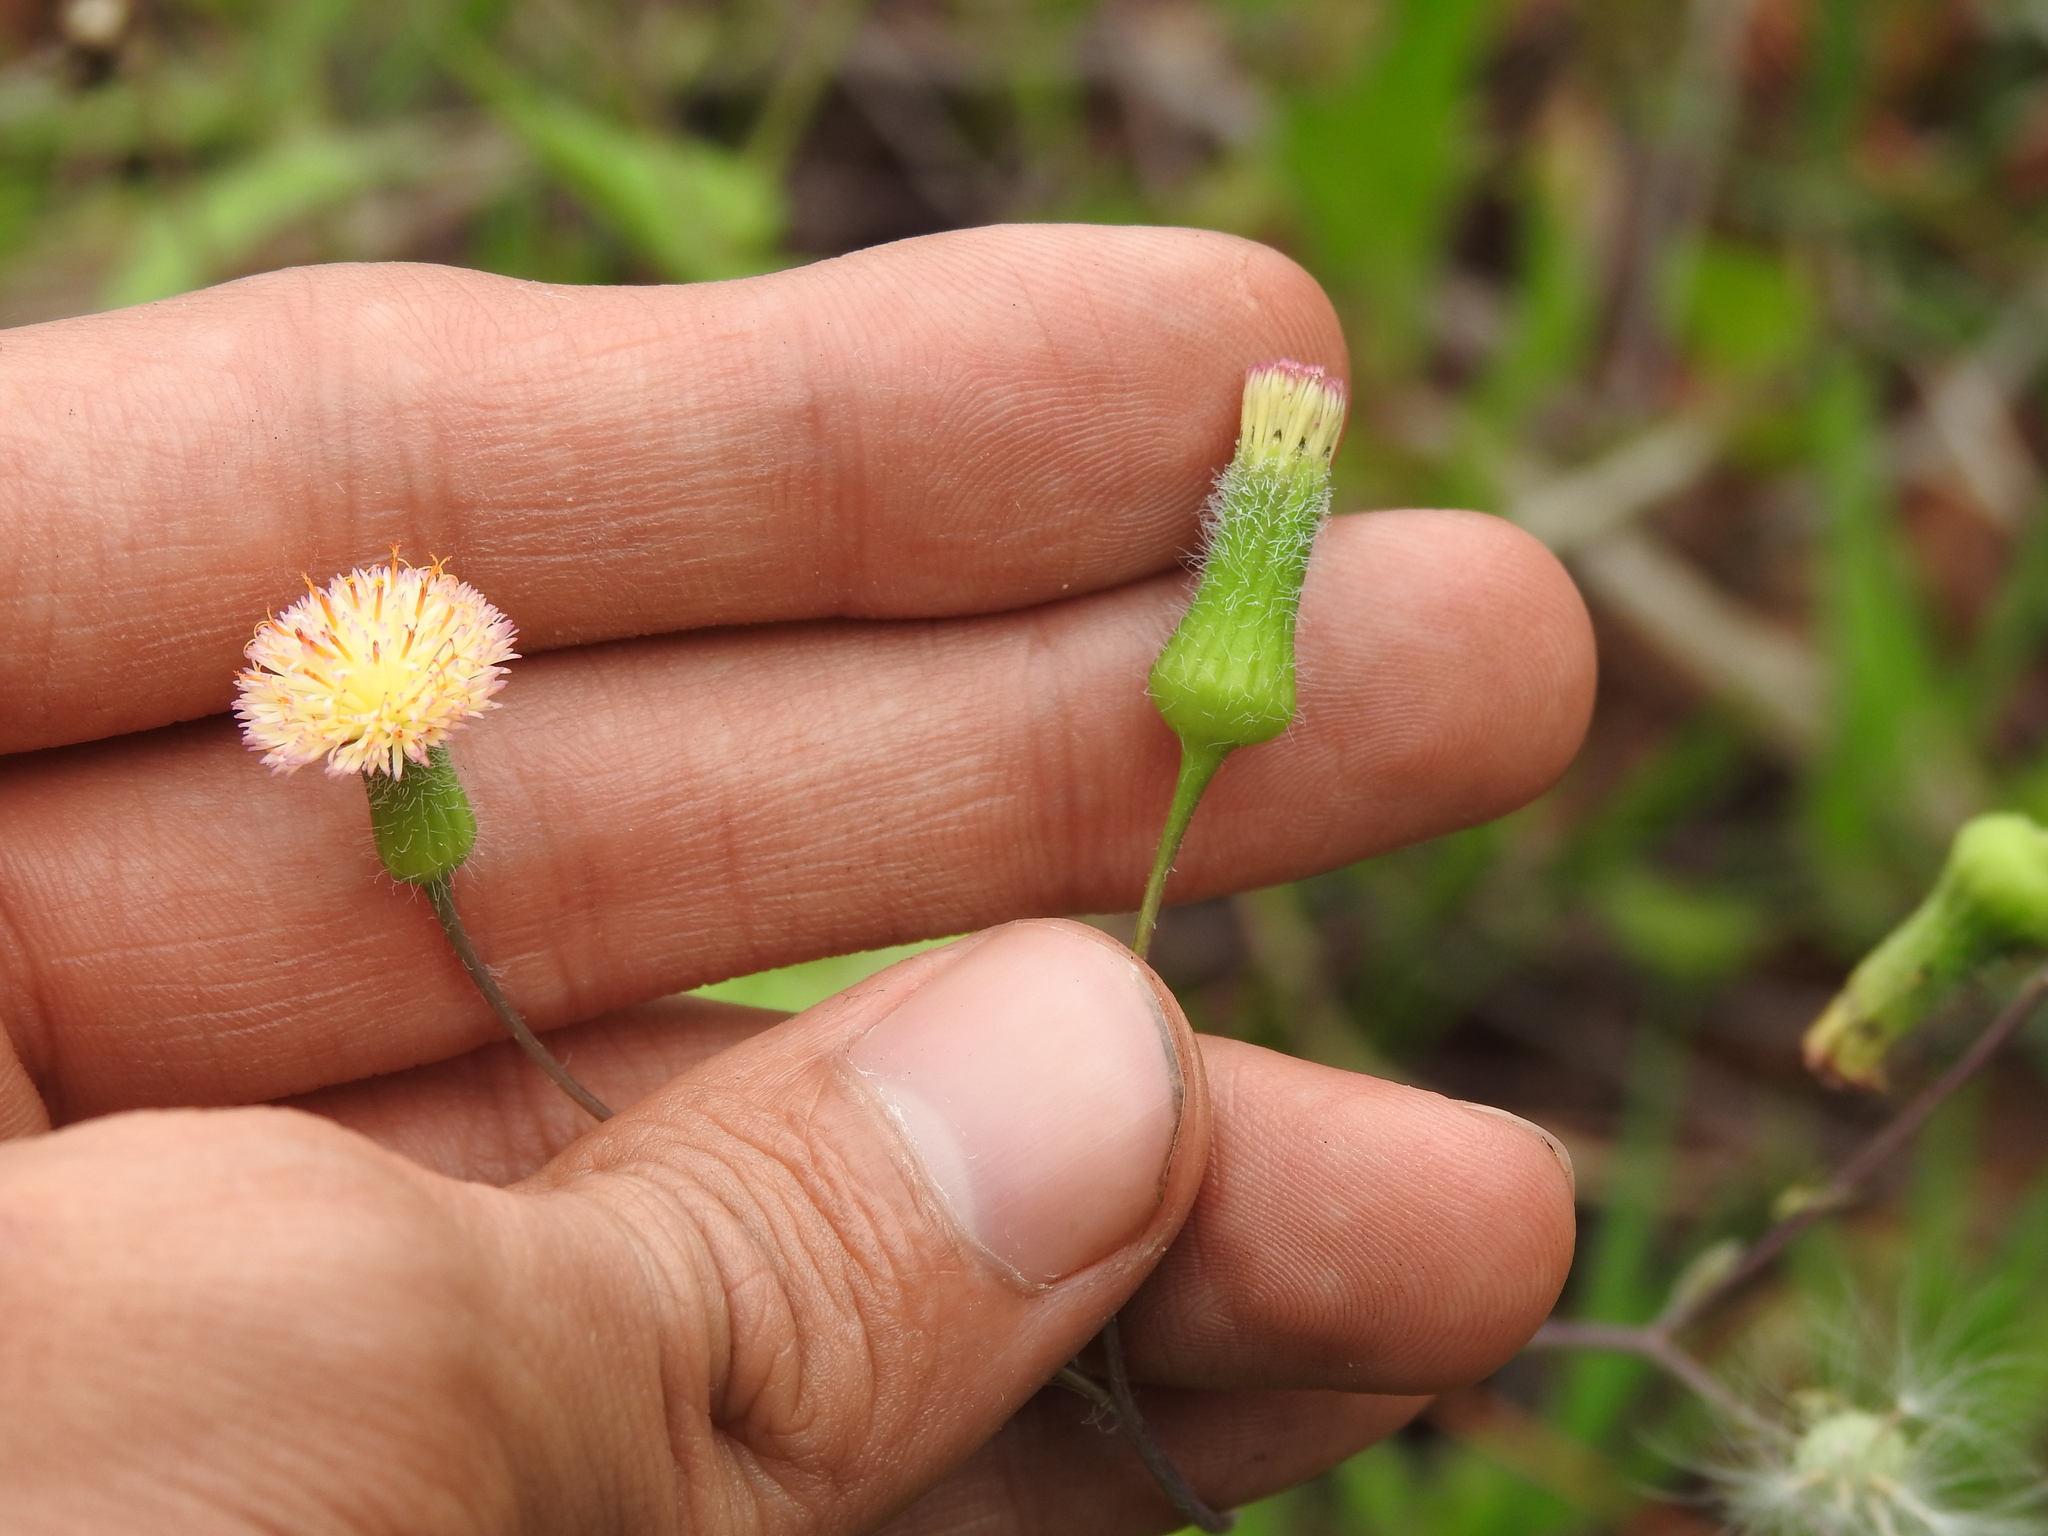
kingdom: Plantae
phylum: Tracheophyta
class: Magnoliopsida
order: Asterales
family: Asteraceae
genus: Emilia
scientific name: Emilia praetermissa
